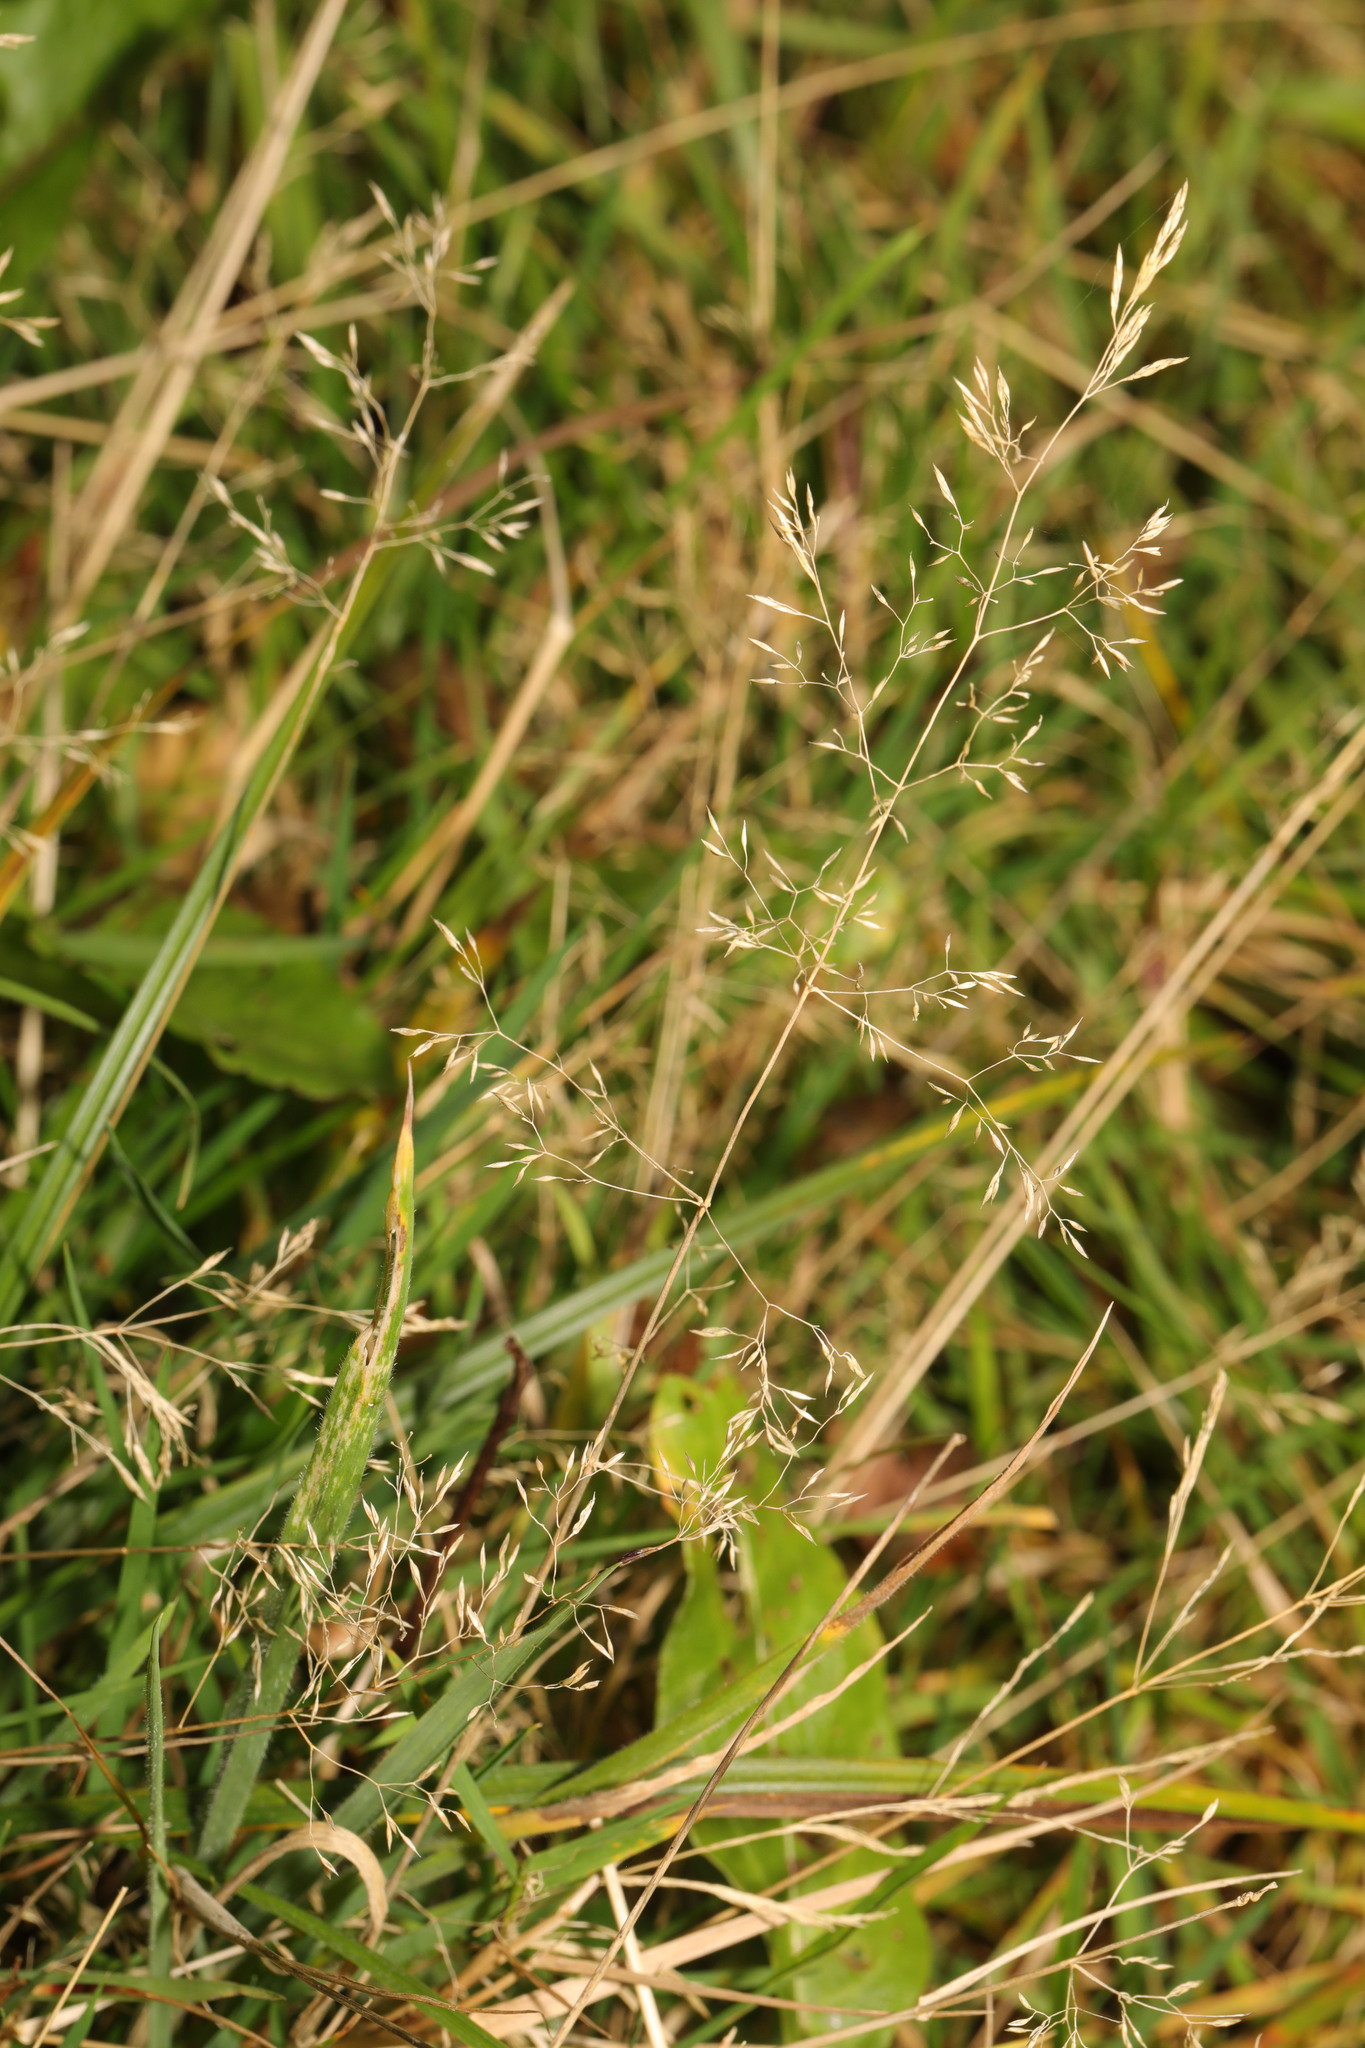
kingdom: Plantae
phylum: Tracheophyta
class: Liliopsida
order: Poales
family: Poaceae
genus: Agrostis
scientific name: Agrostis capillaris
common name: Colonial bentgrass
